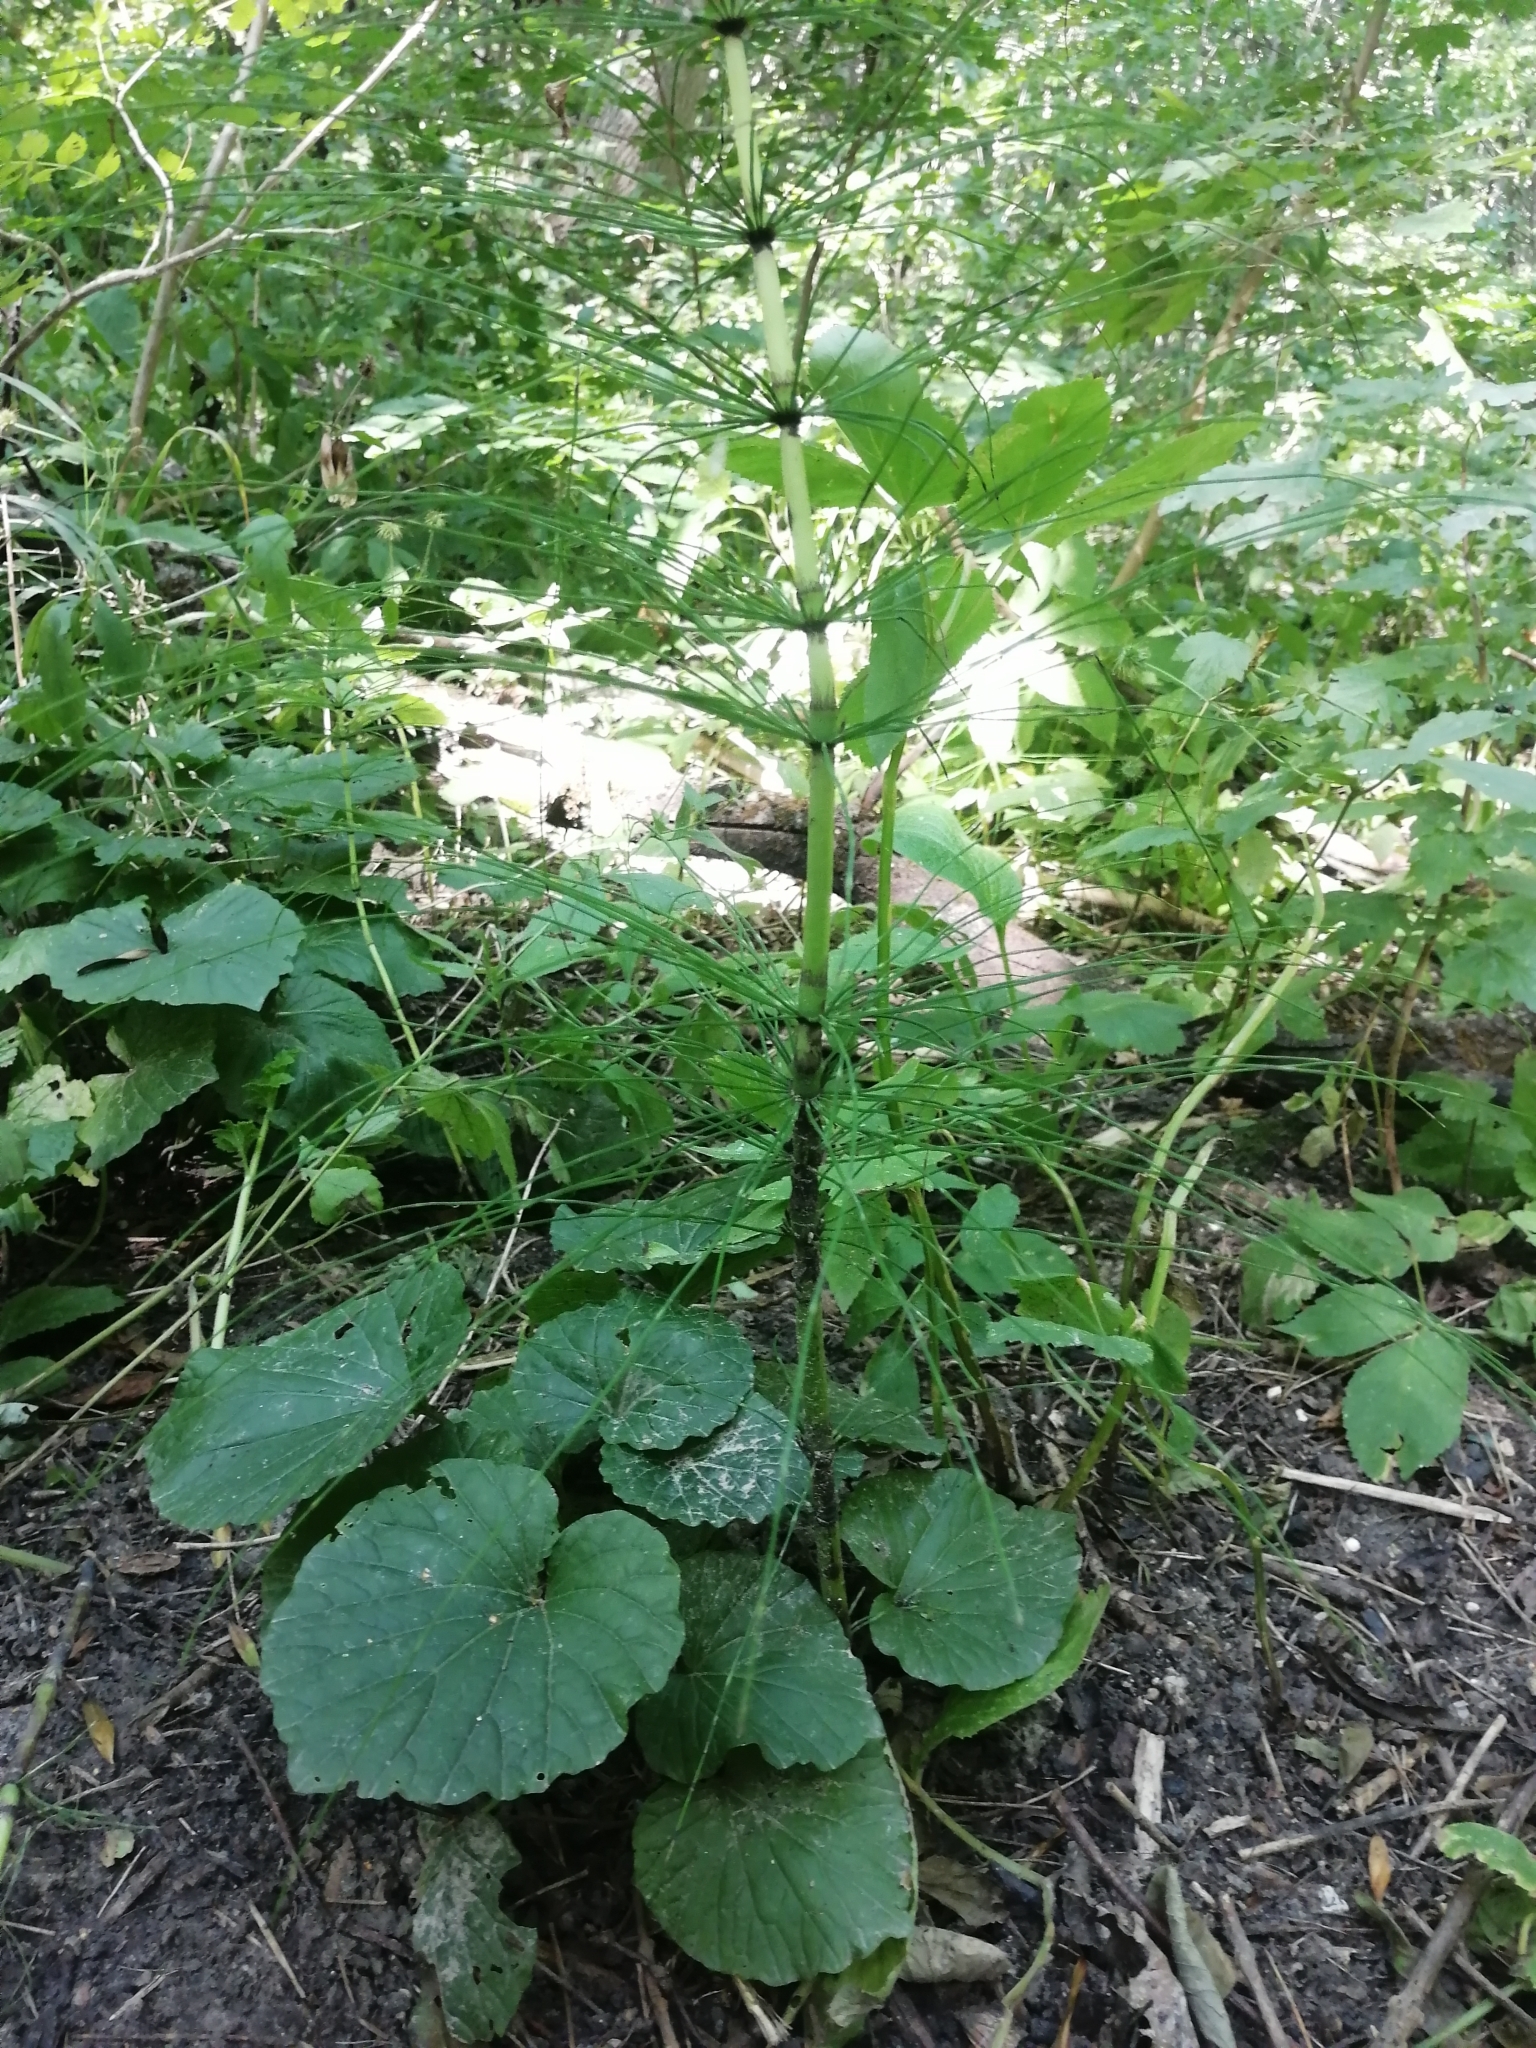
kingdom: Plantae
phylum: Tracheophyta
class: Polypodiopsida
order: Equisetales
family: Equisetaceae
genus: Equisetum
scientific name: Equisetum telmateia
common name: Great horsetail
